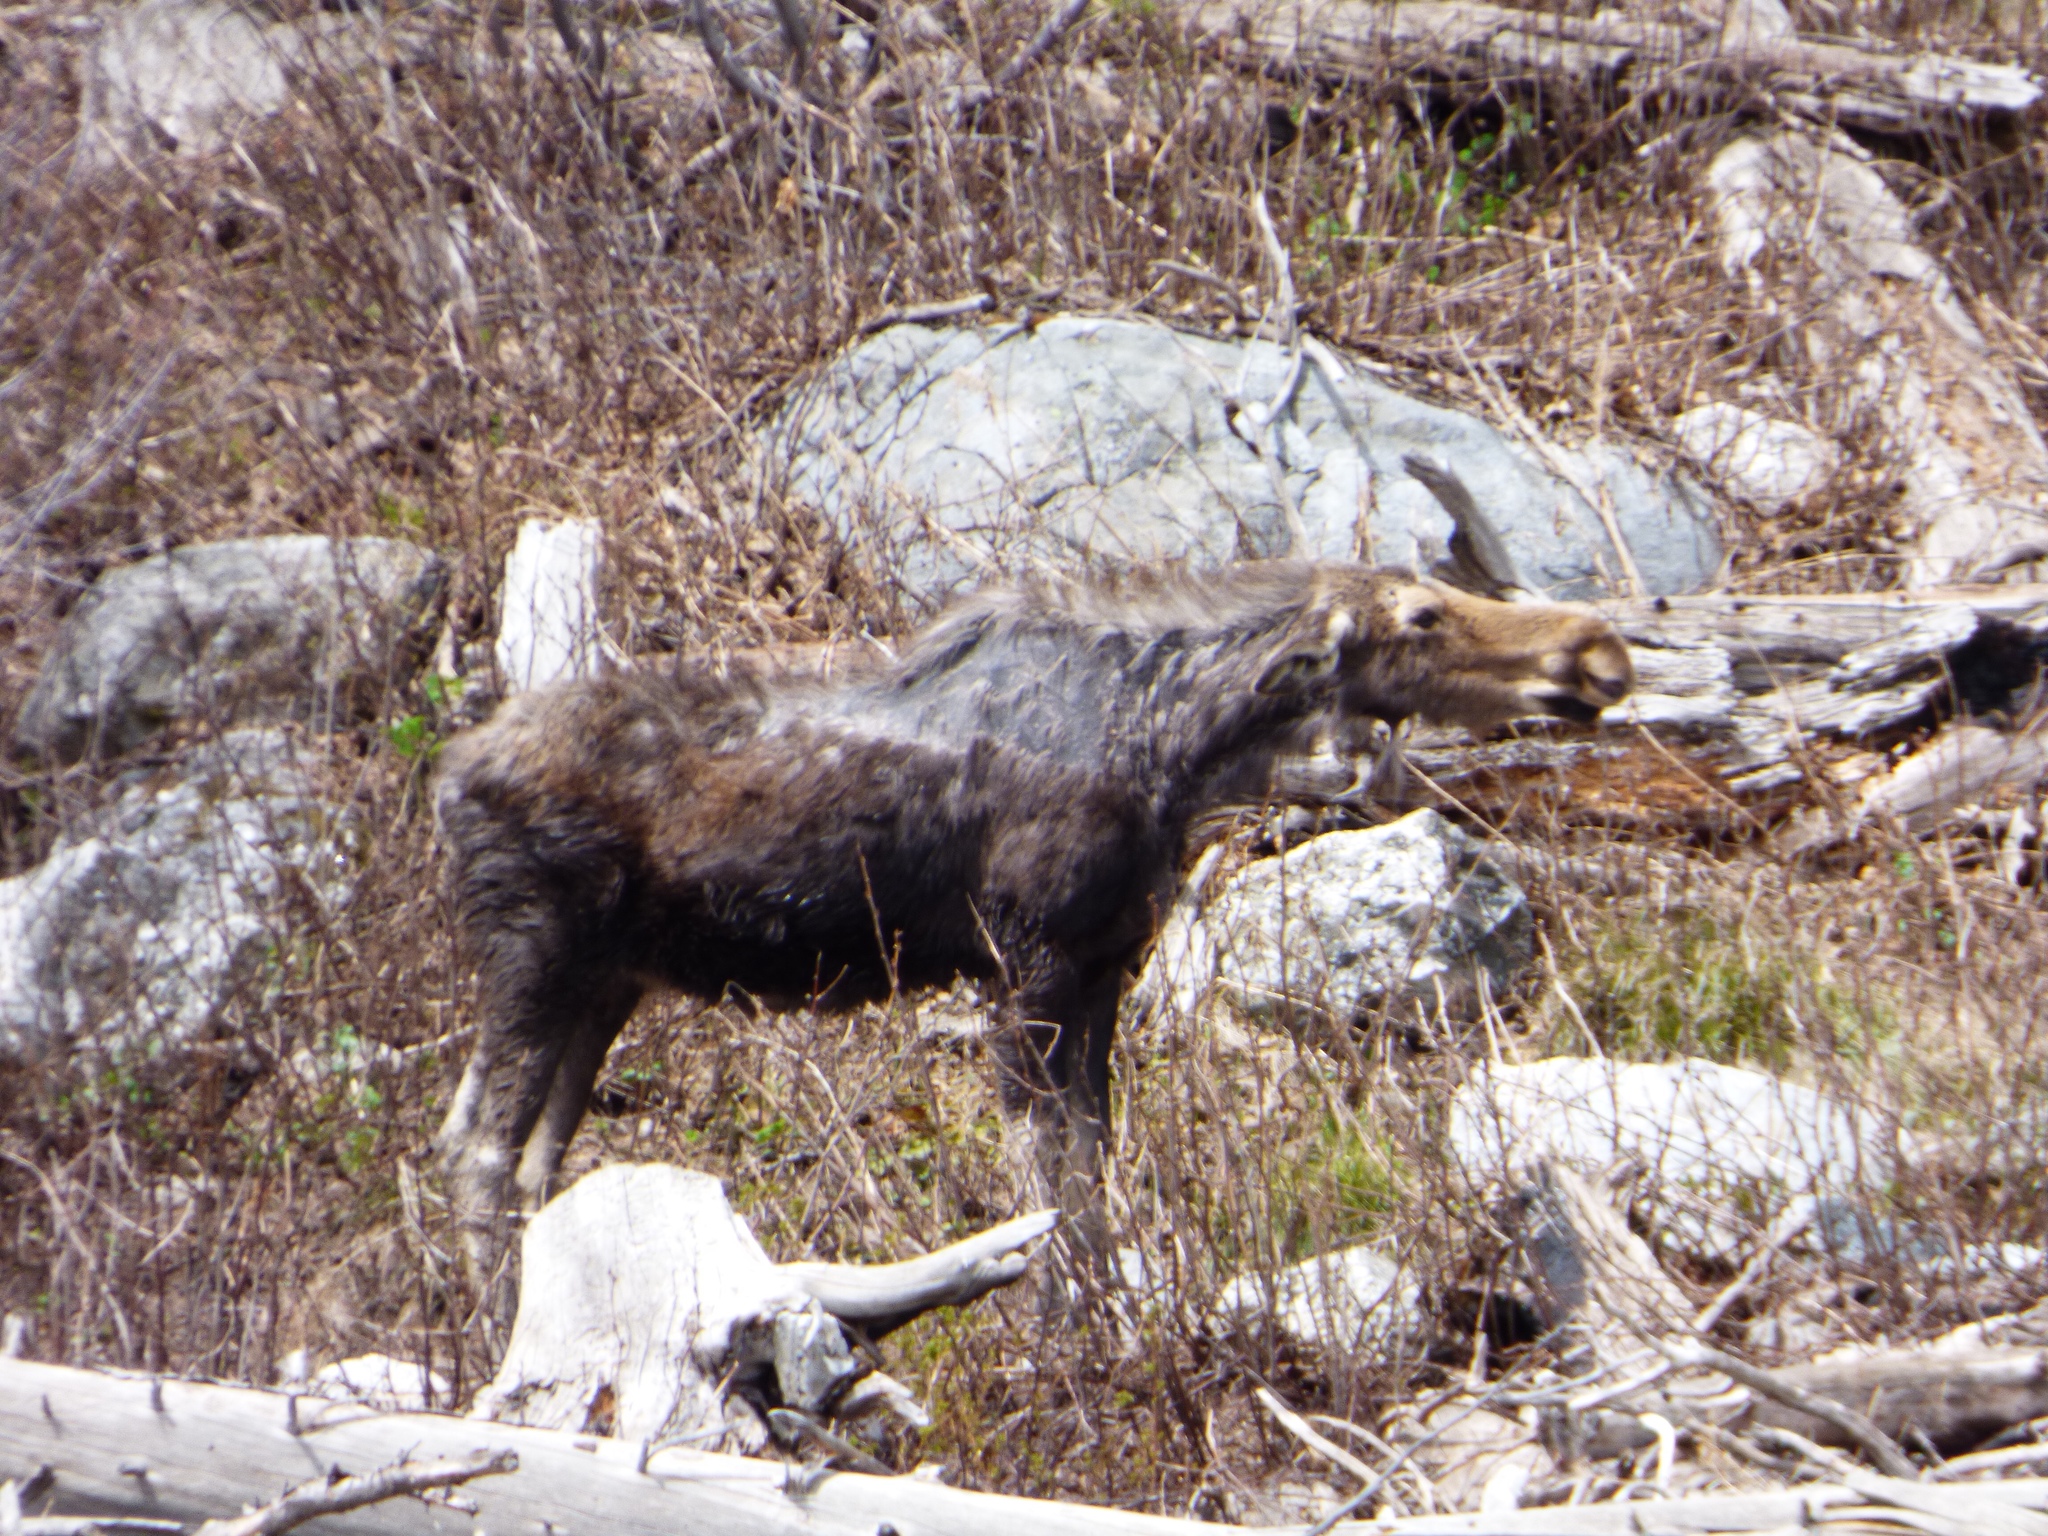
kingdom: Animalia
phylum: Chordata
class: Mammalia
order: Artiodactyla
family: Cervidae
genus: Alces
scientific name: Alces alces
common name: Moose
